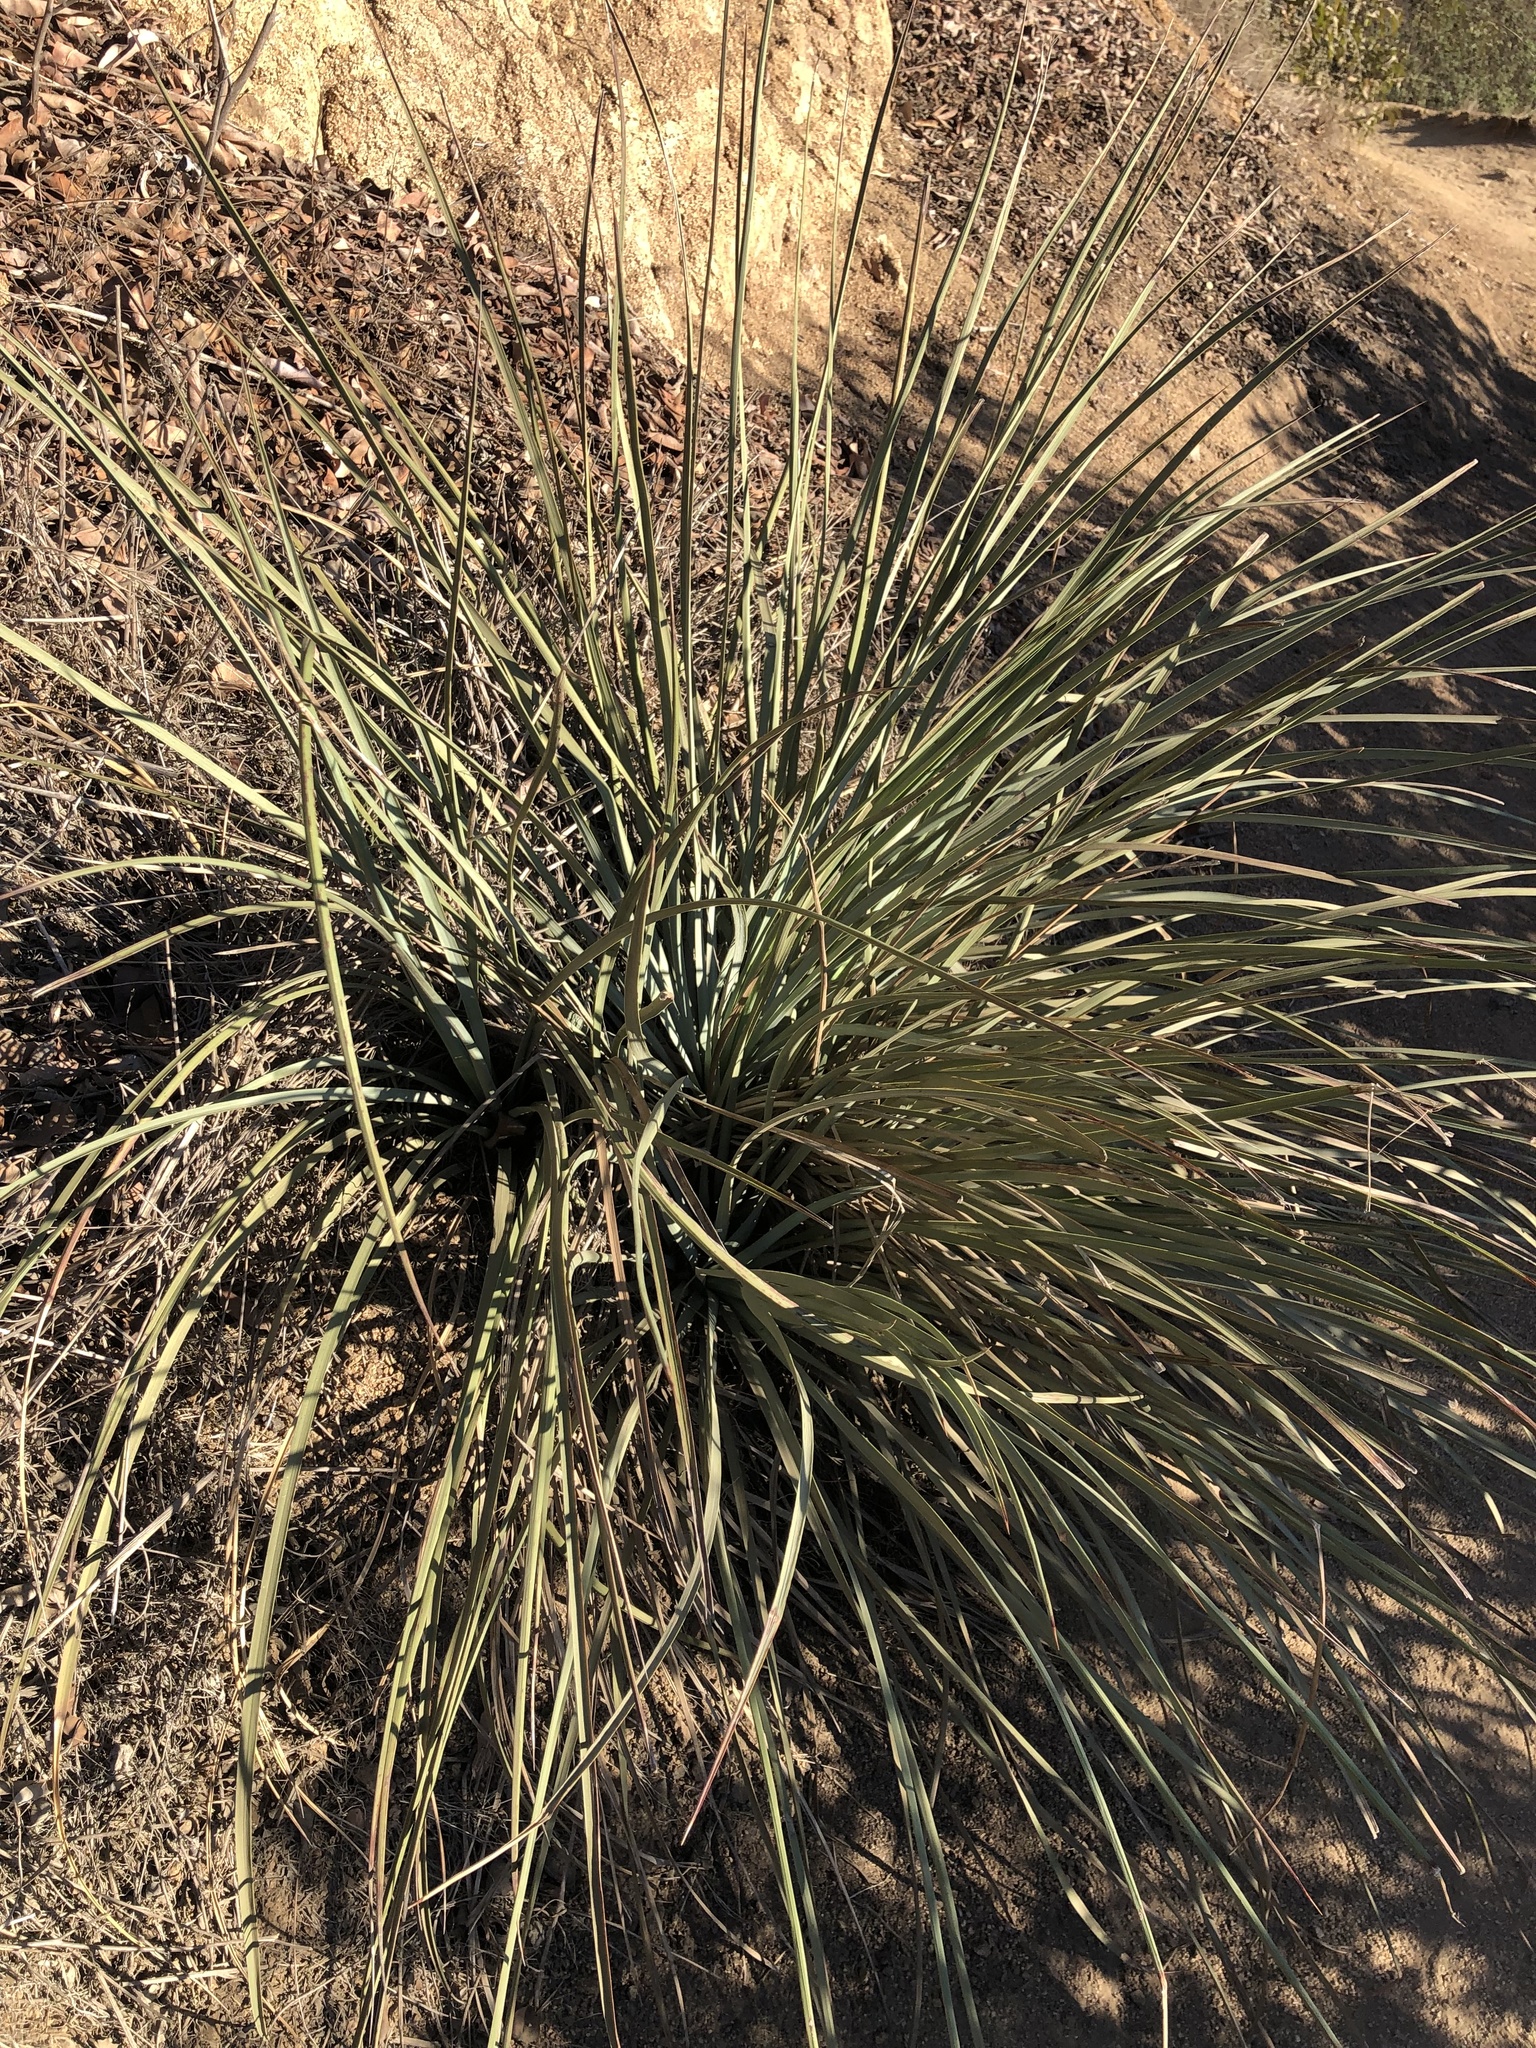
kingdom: Plantae
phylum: Tracheophyta
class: Liliopsida
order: Asparagales
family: Asparagaceae
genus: Hesperoyucca
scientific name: Hesperoyucca whipplei
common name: Our lord's-candle
